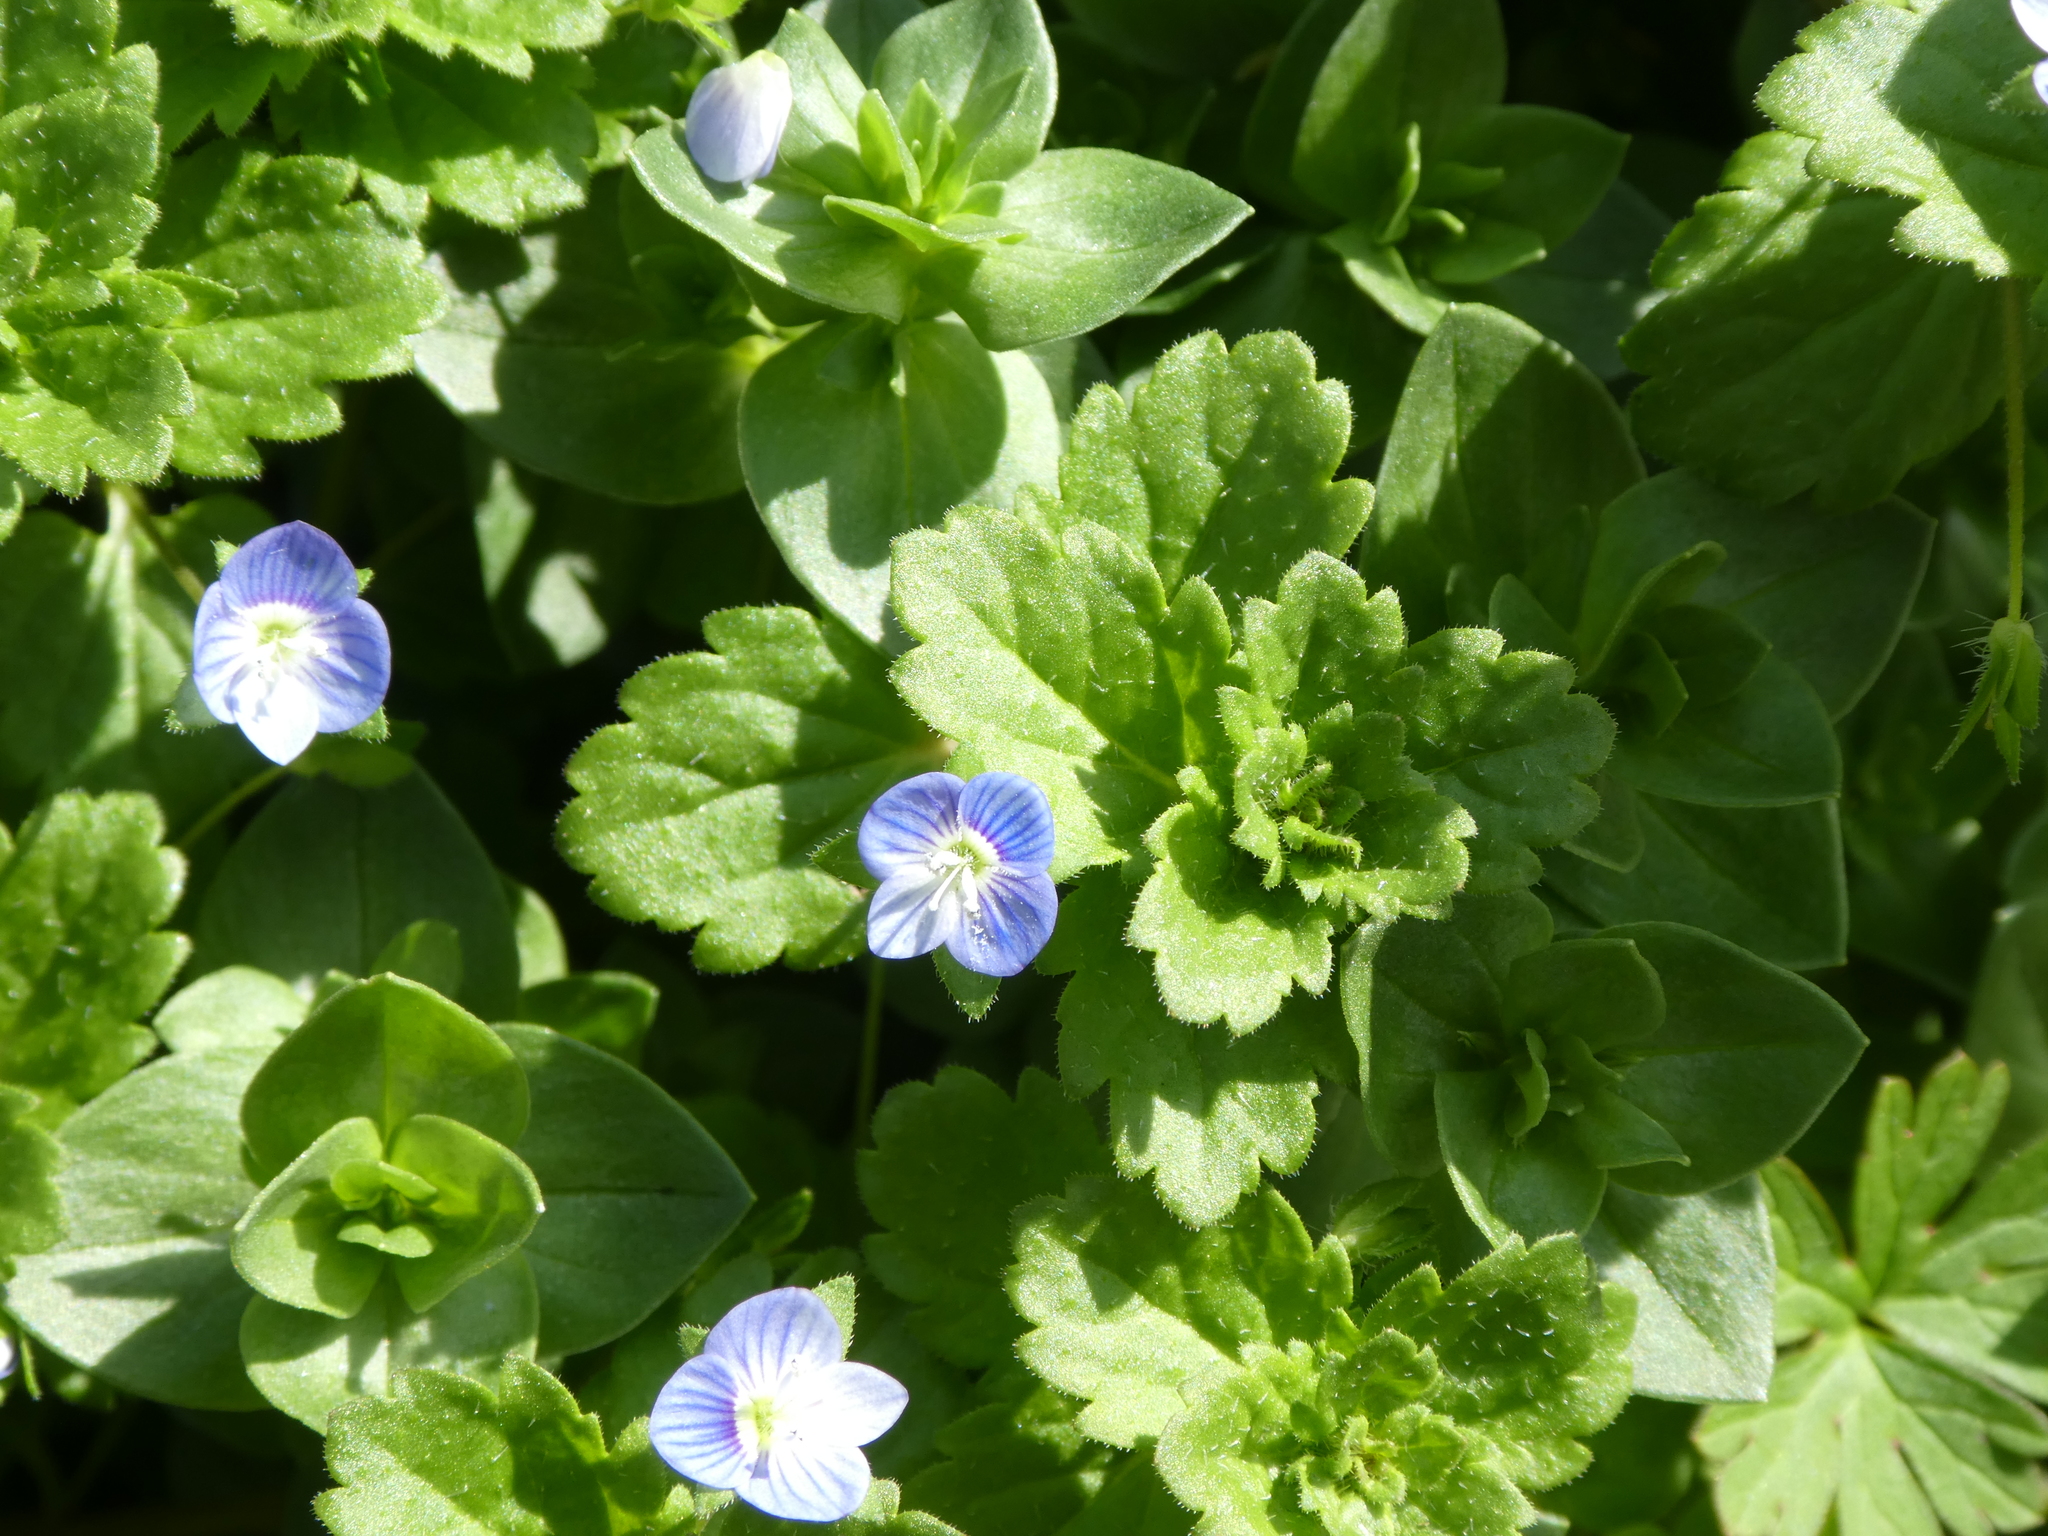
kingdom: Plantae
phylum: Tracheophyta
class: Magnoliopsida
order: Lamiales
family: Plantaginaceae
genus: Veronica
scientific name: Veronica persica
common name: Common field-speedwell
